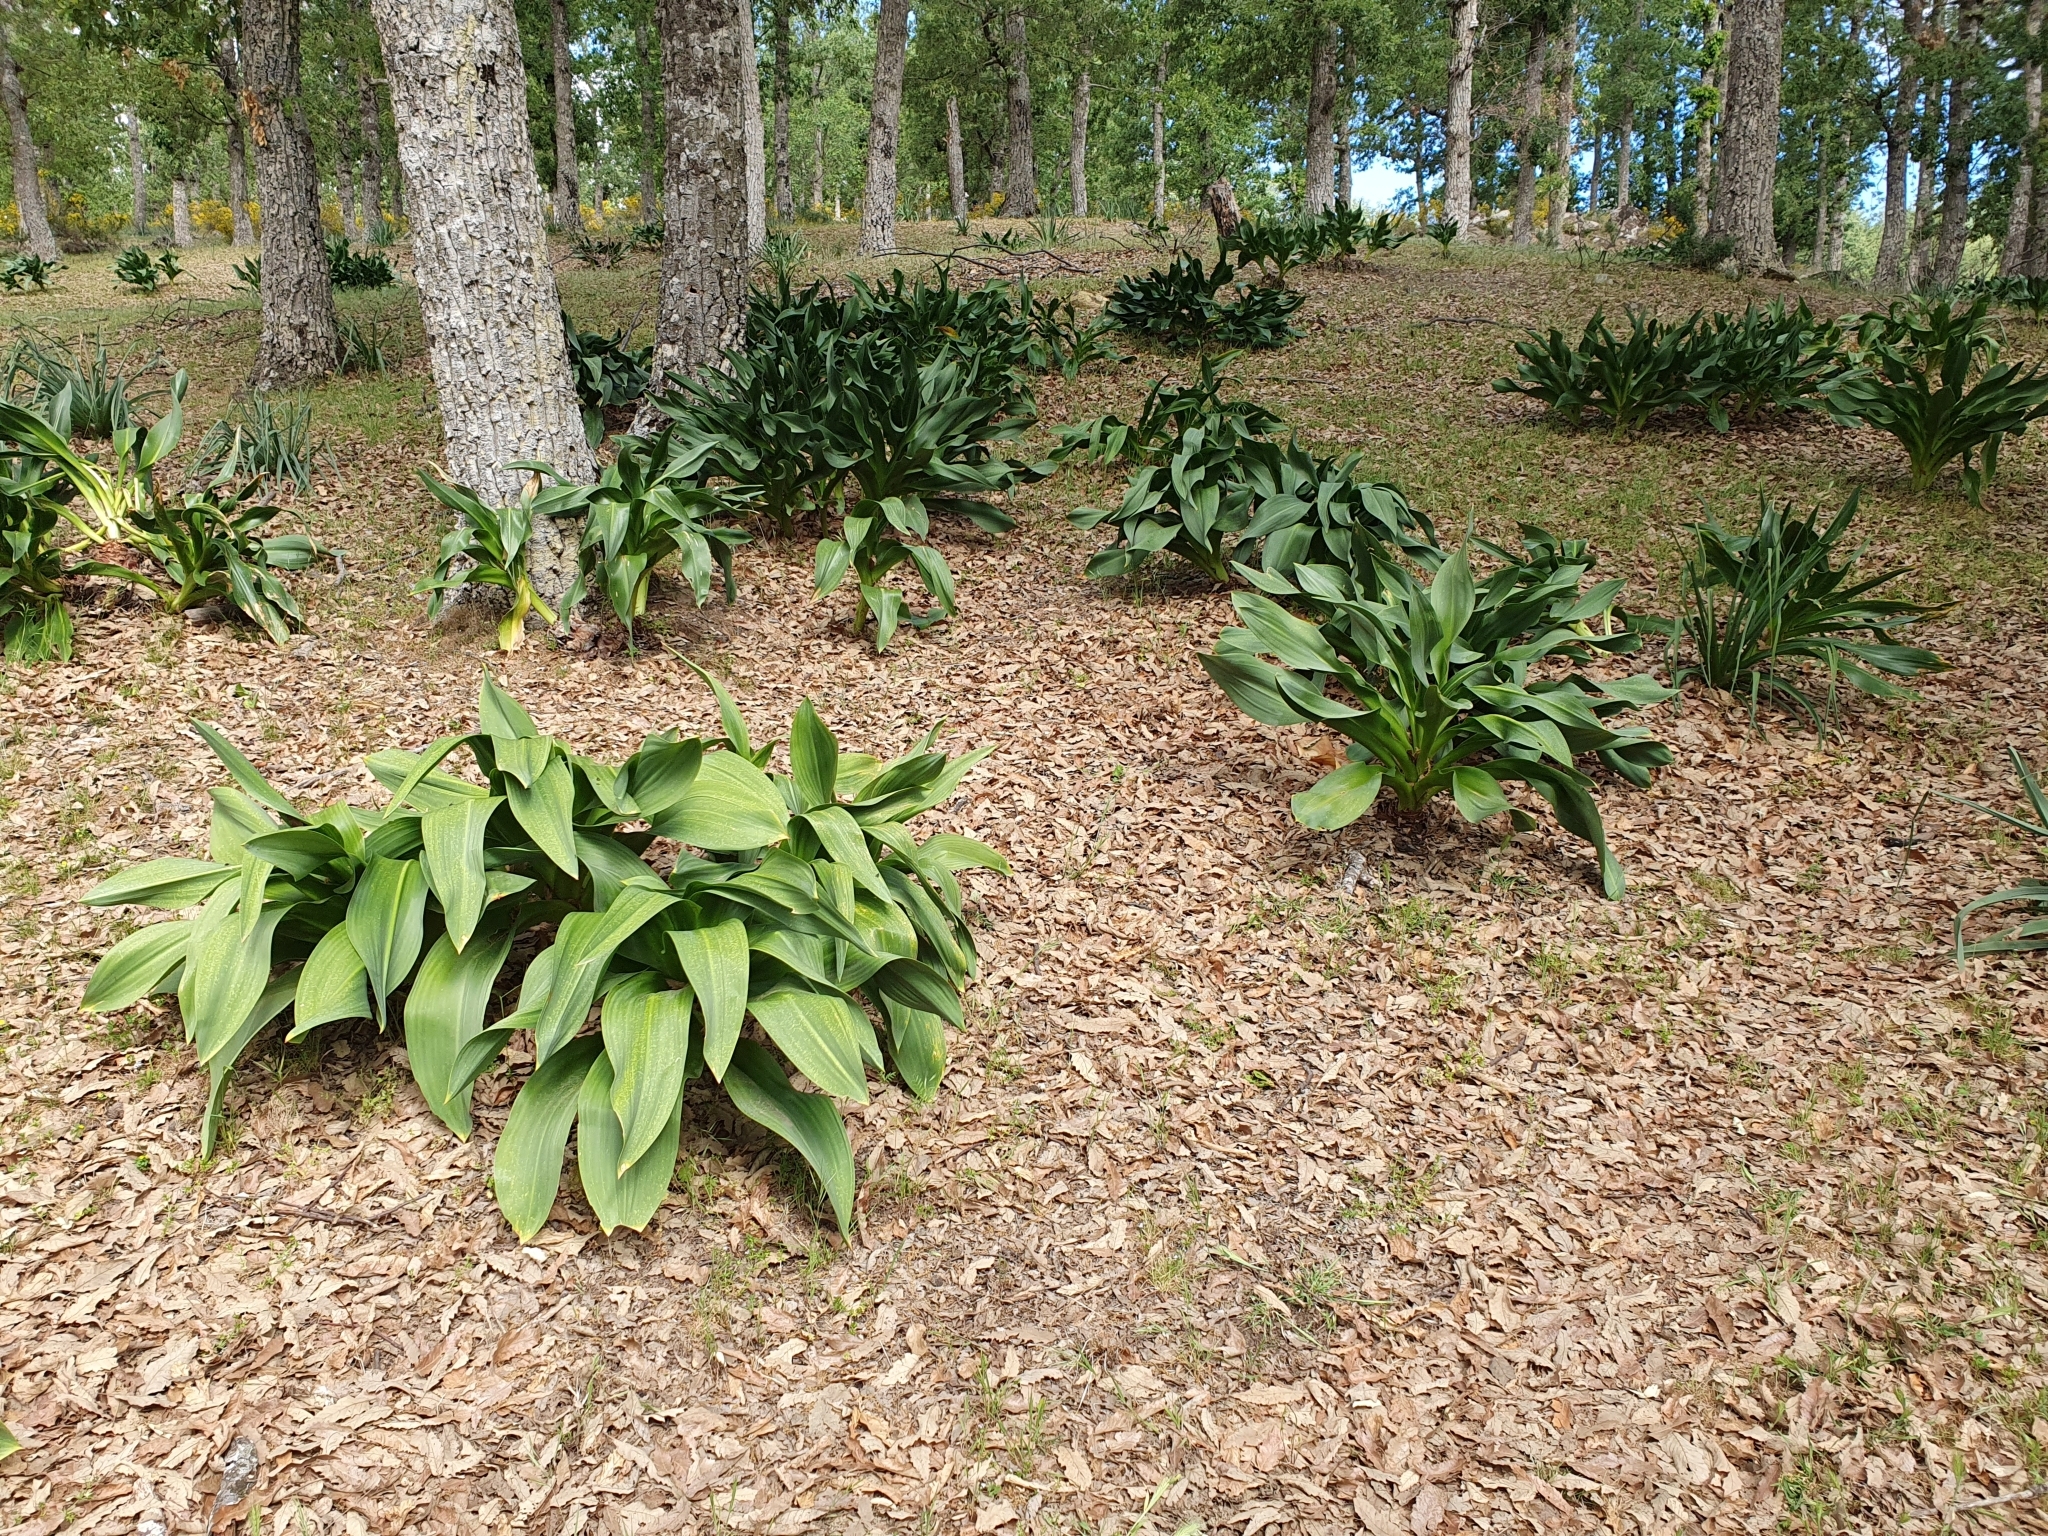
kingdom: Plantae
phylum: Tracheophyta
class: Liliopsida
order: Asparagales
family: Asparagaceae
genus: Drimia
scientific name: Drimia numidica
